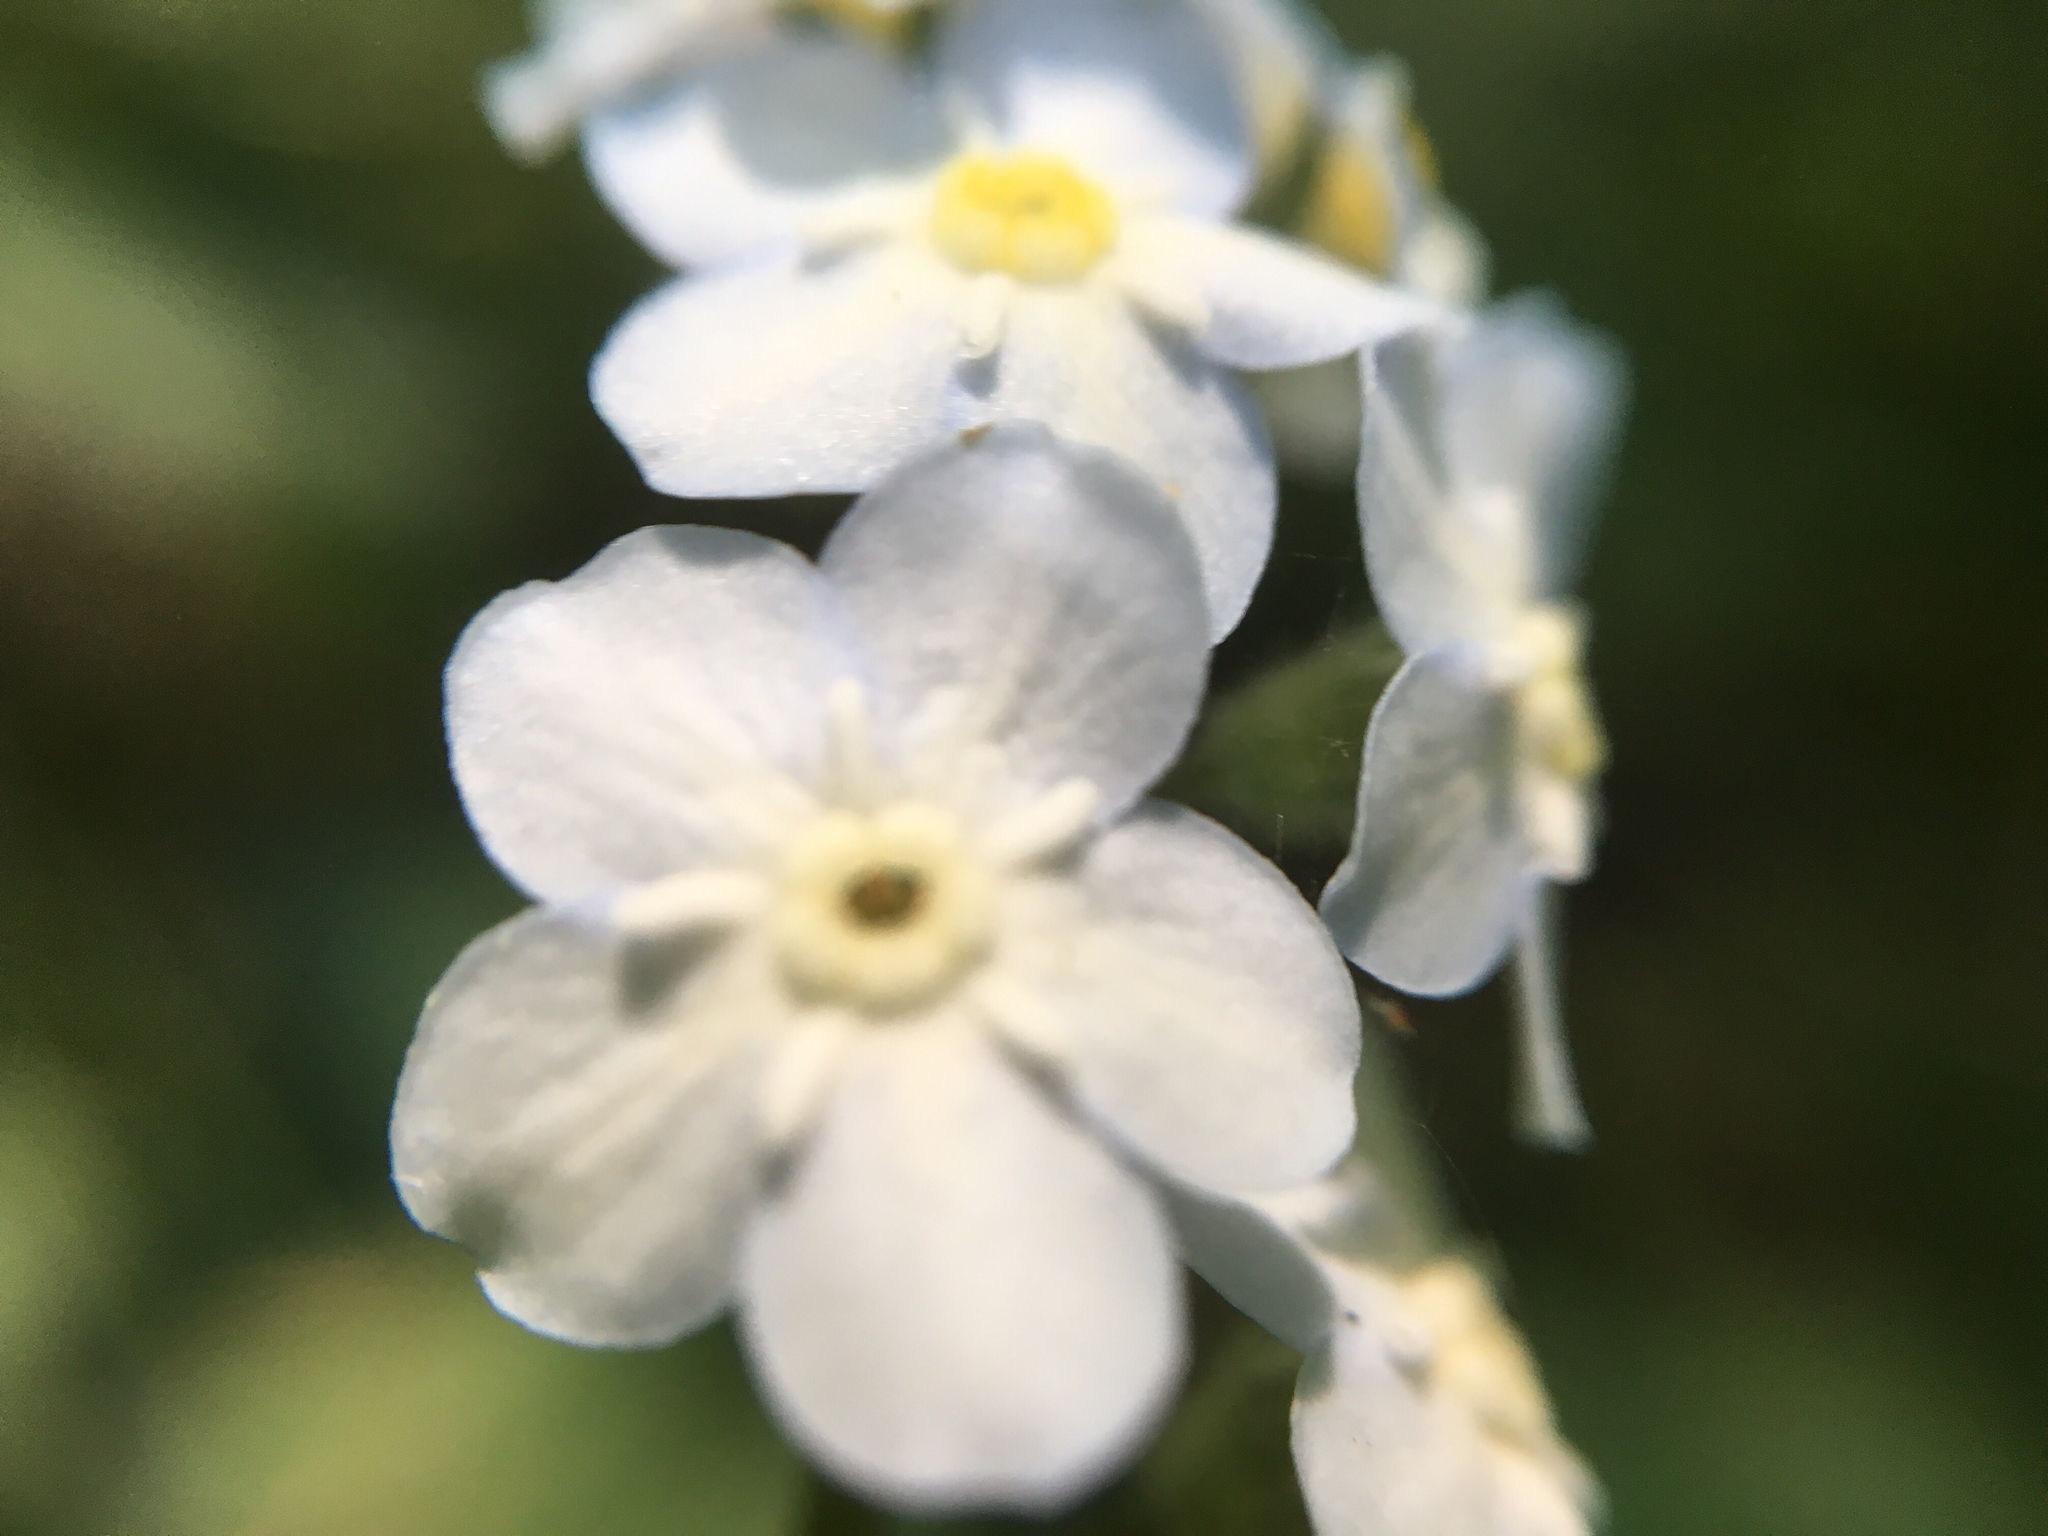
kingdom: Plantae
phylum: Tracheophyta
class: Magnoliopsida
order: Boraginales
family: Boraginaceae
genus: Myosotis
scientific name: Myosotis latifolia
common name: Broadleaf forget-me-not
